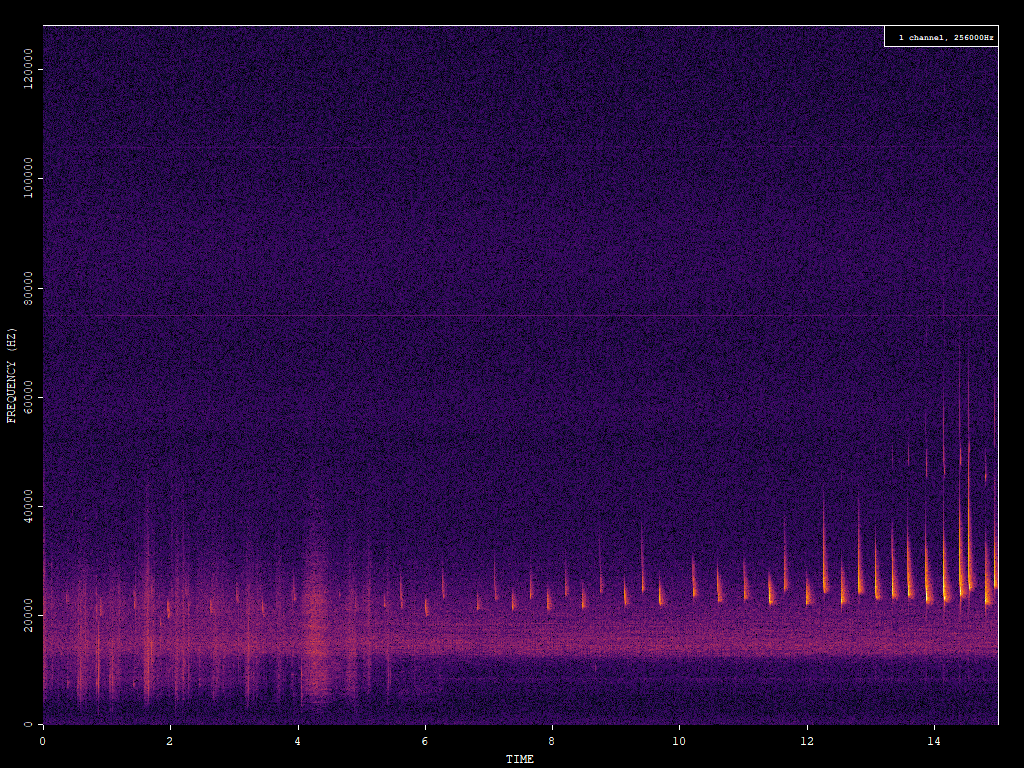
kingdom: Animalia
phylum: Chordata
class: Mammalia
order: Chiroptera
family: Vespertilionidae
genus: Nyctalus
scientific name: Nyctalus noctula
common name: Noctule
